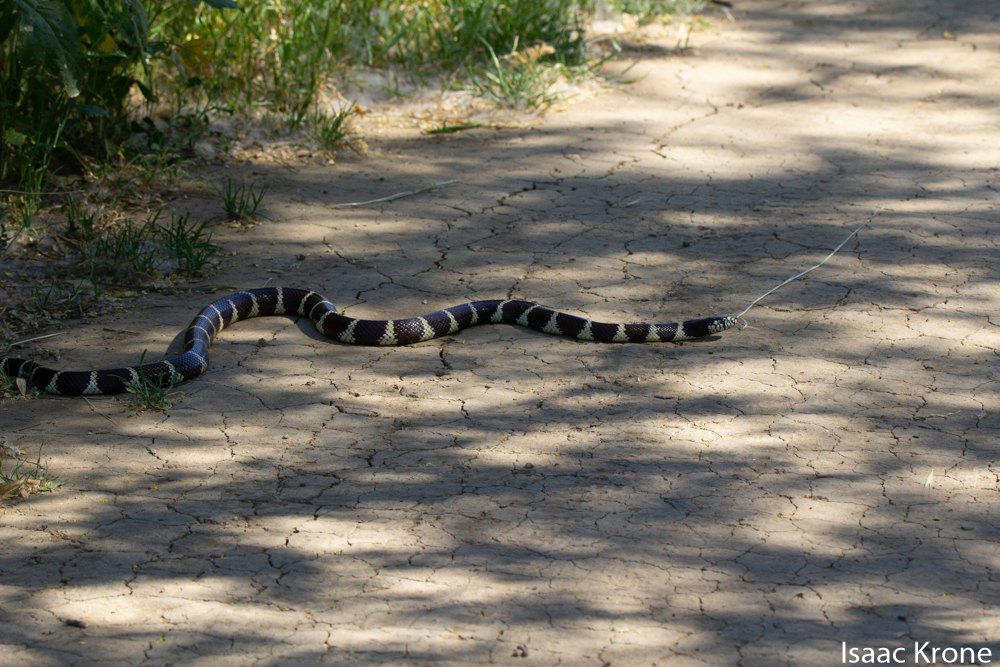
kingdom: Animalia
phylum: Chordata
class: Squamata
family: Colubridae
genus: Lampropeltis
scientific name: Lampropeltis californiae
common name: California kingsnake
